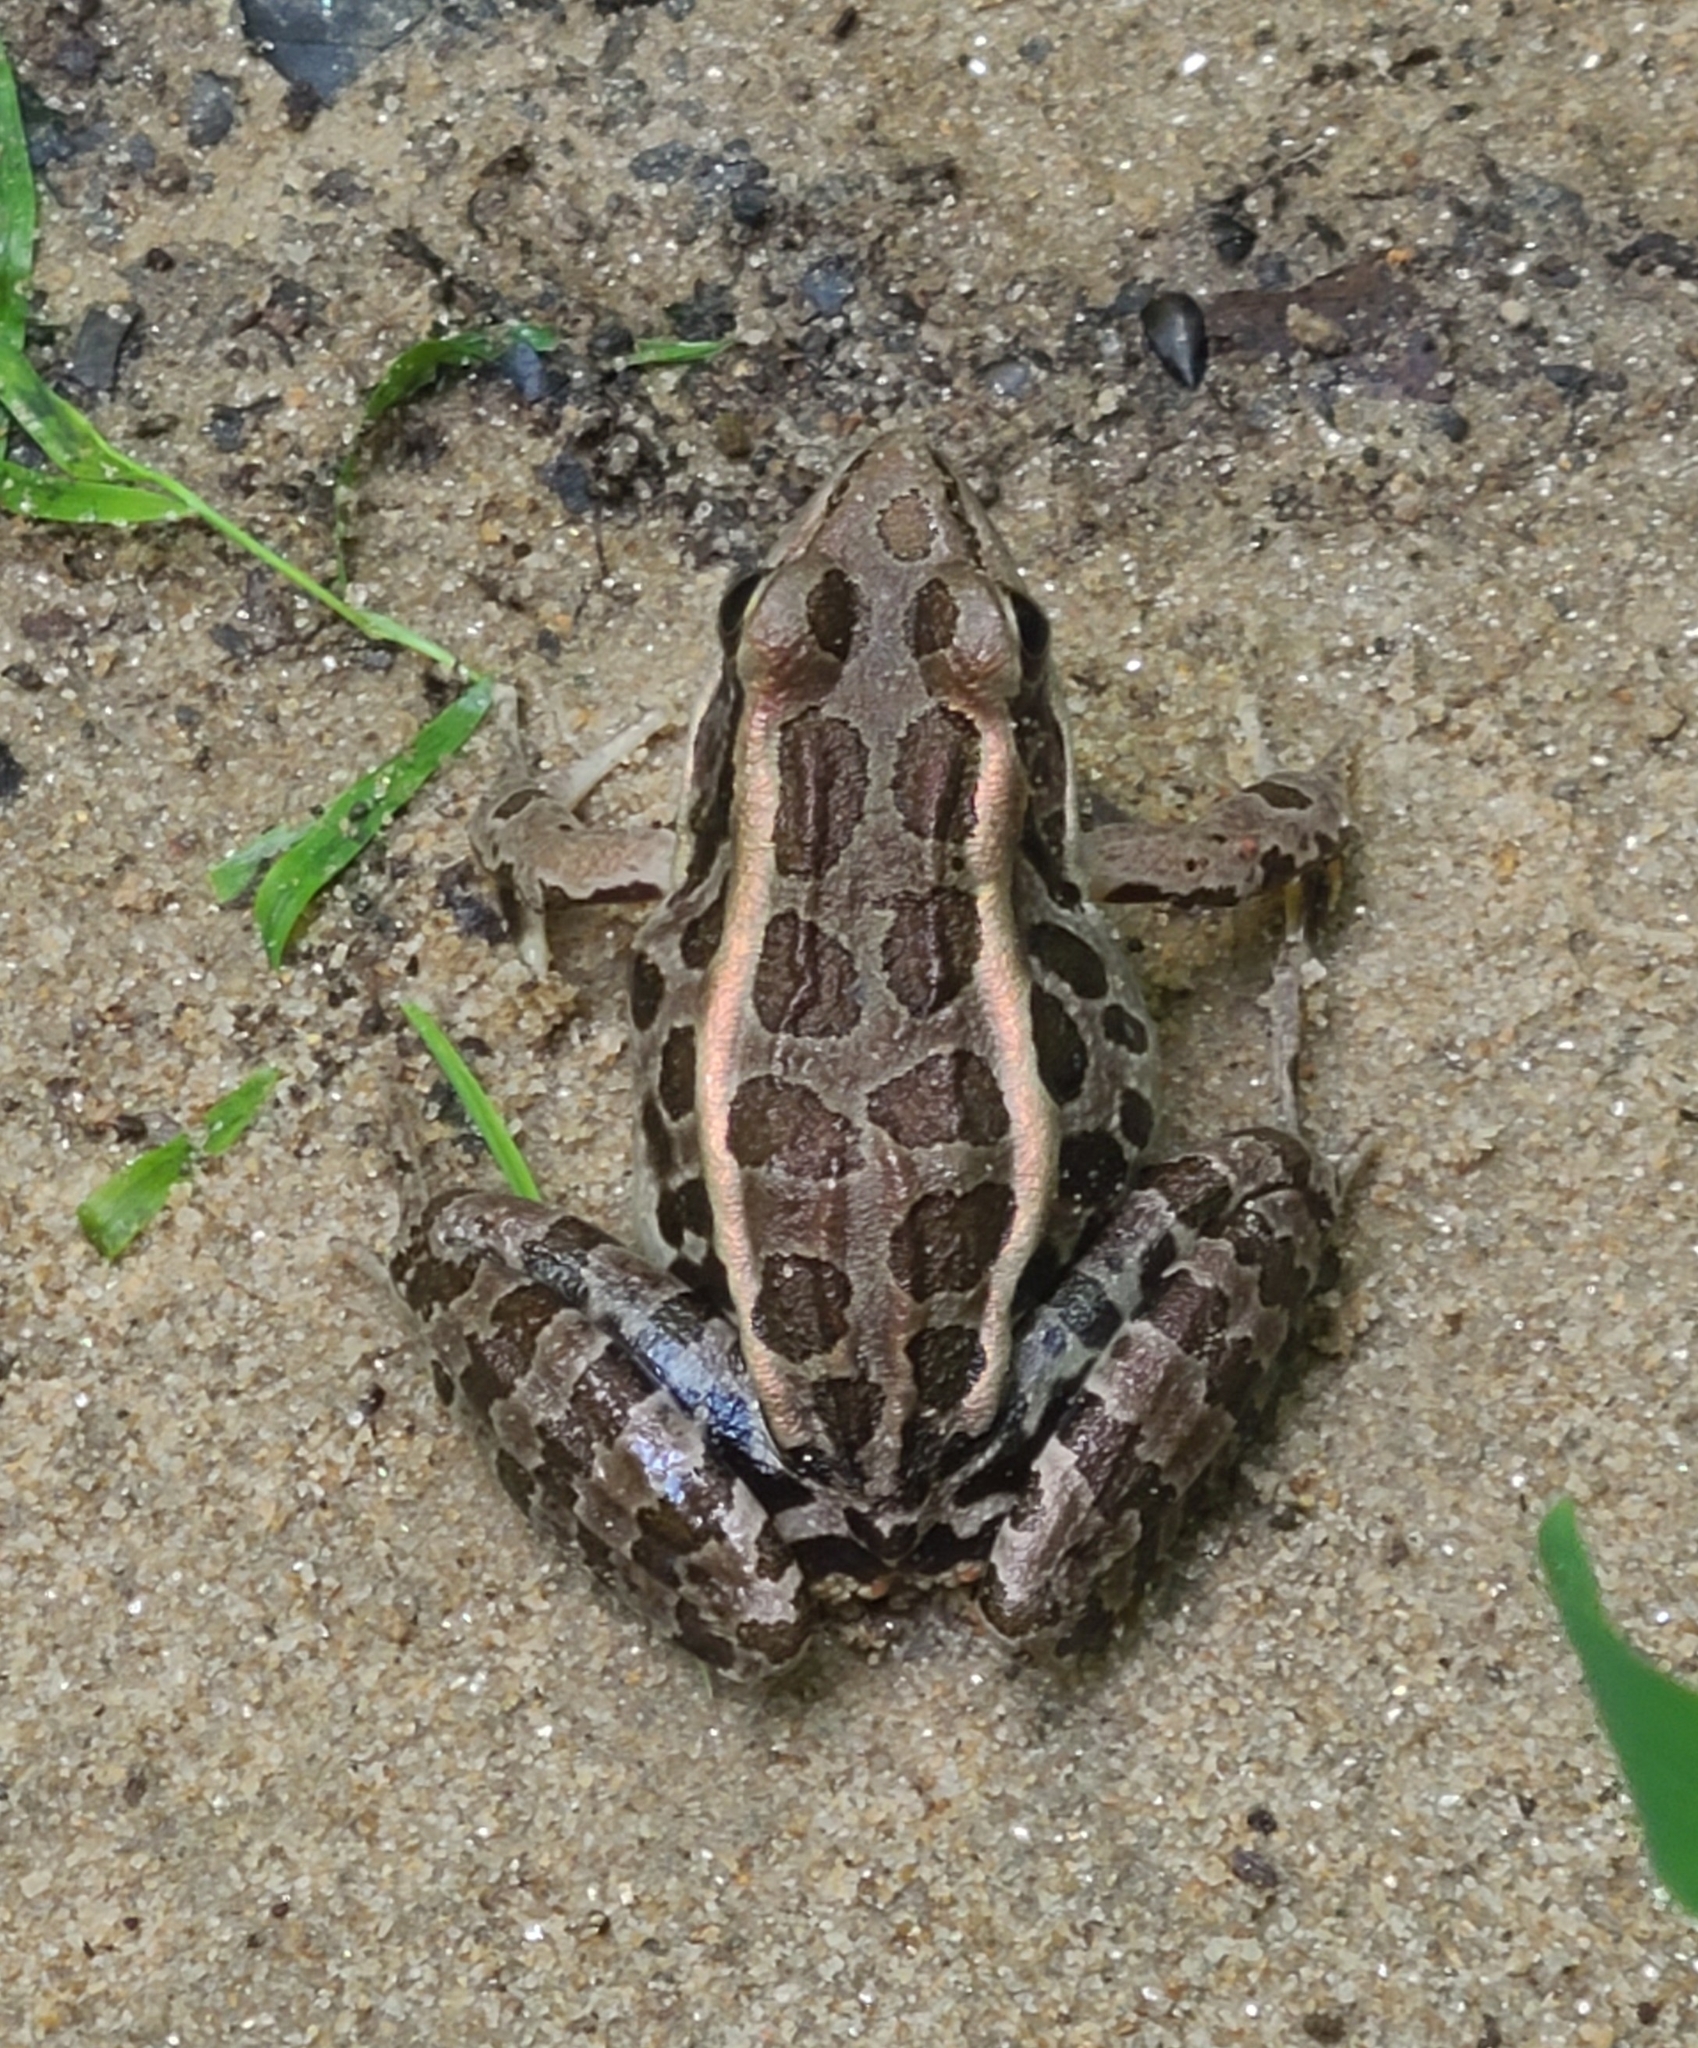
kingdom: Animalia
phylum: Chordata
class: Amphibia
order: Anura
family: Ranidae
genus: Lithobates
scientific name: Lithobates palustris
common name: Pickerel frog
